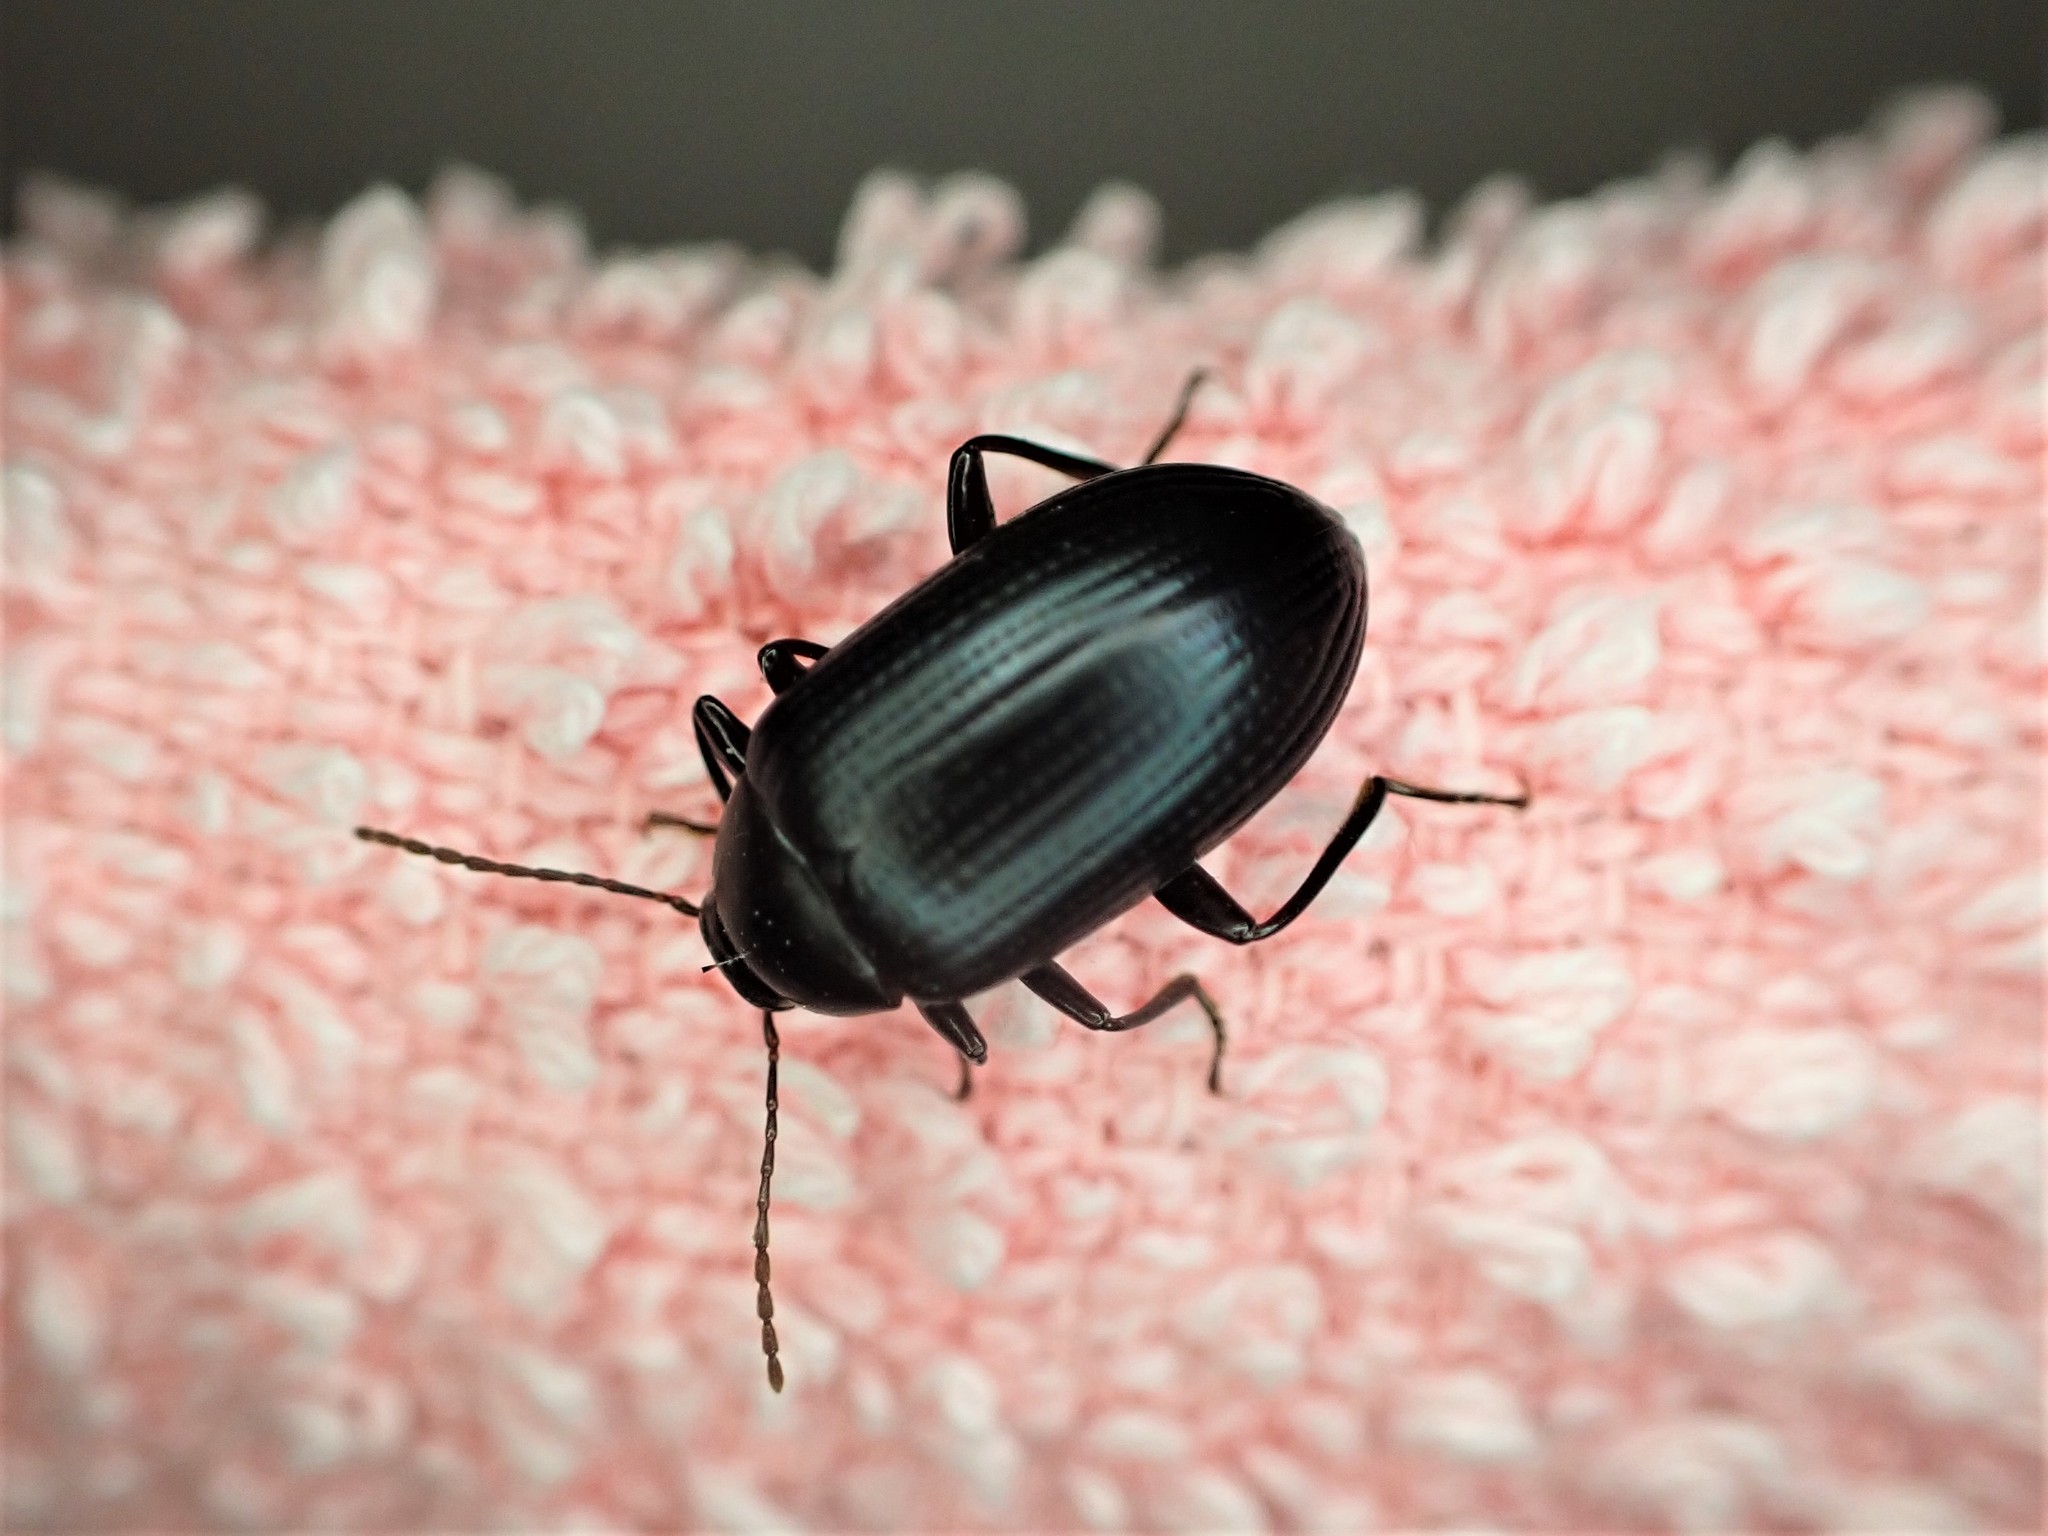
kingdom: Animalia
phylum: Arthropoda
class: Insecta
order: Coleoptera
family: Tenebrionidae
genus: Amarygmus
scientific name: Amarygmus
